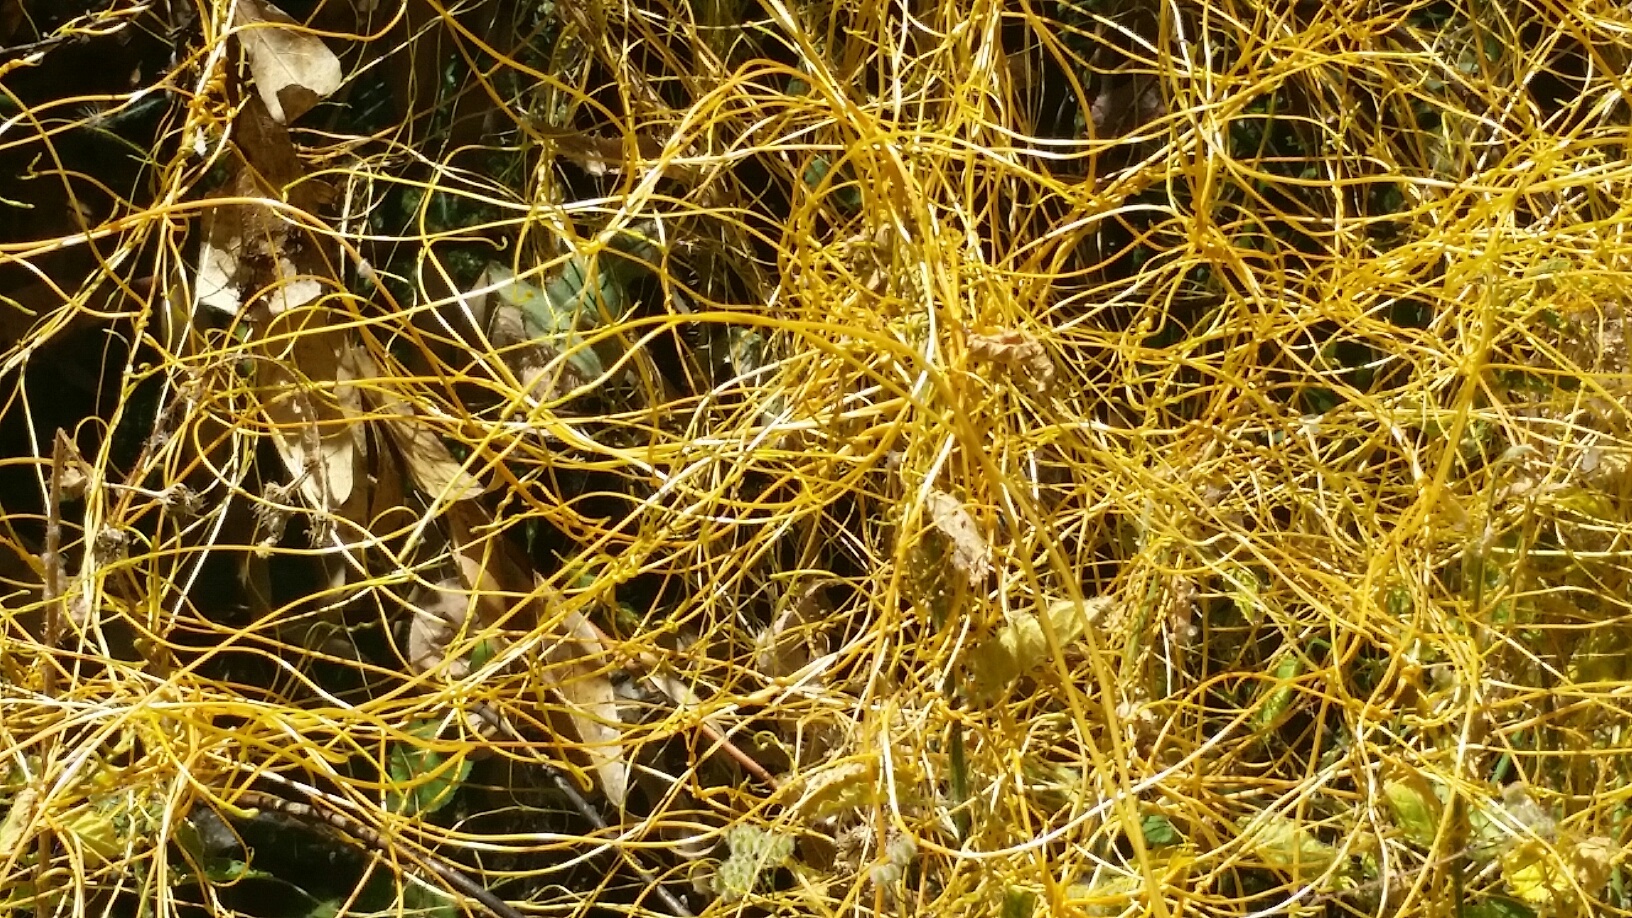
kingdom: Plantae
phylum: Tracheophyta
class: Magnoliopsida
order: Solanales
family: Convolvulaceae
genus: Cuscuta
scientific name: Cuscuta californica
